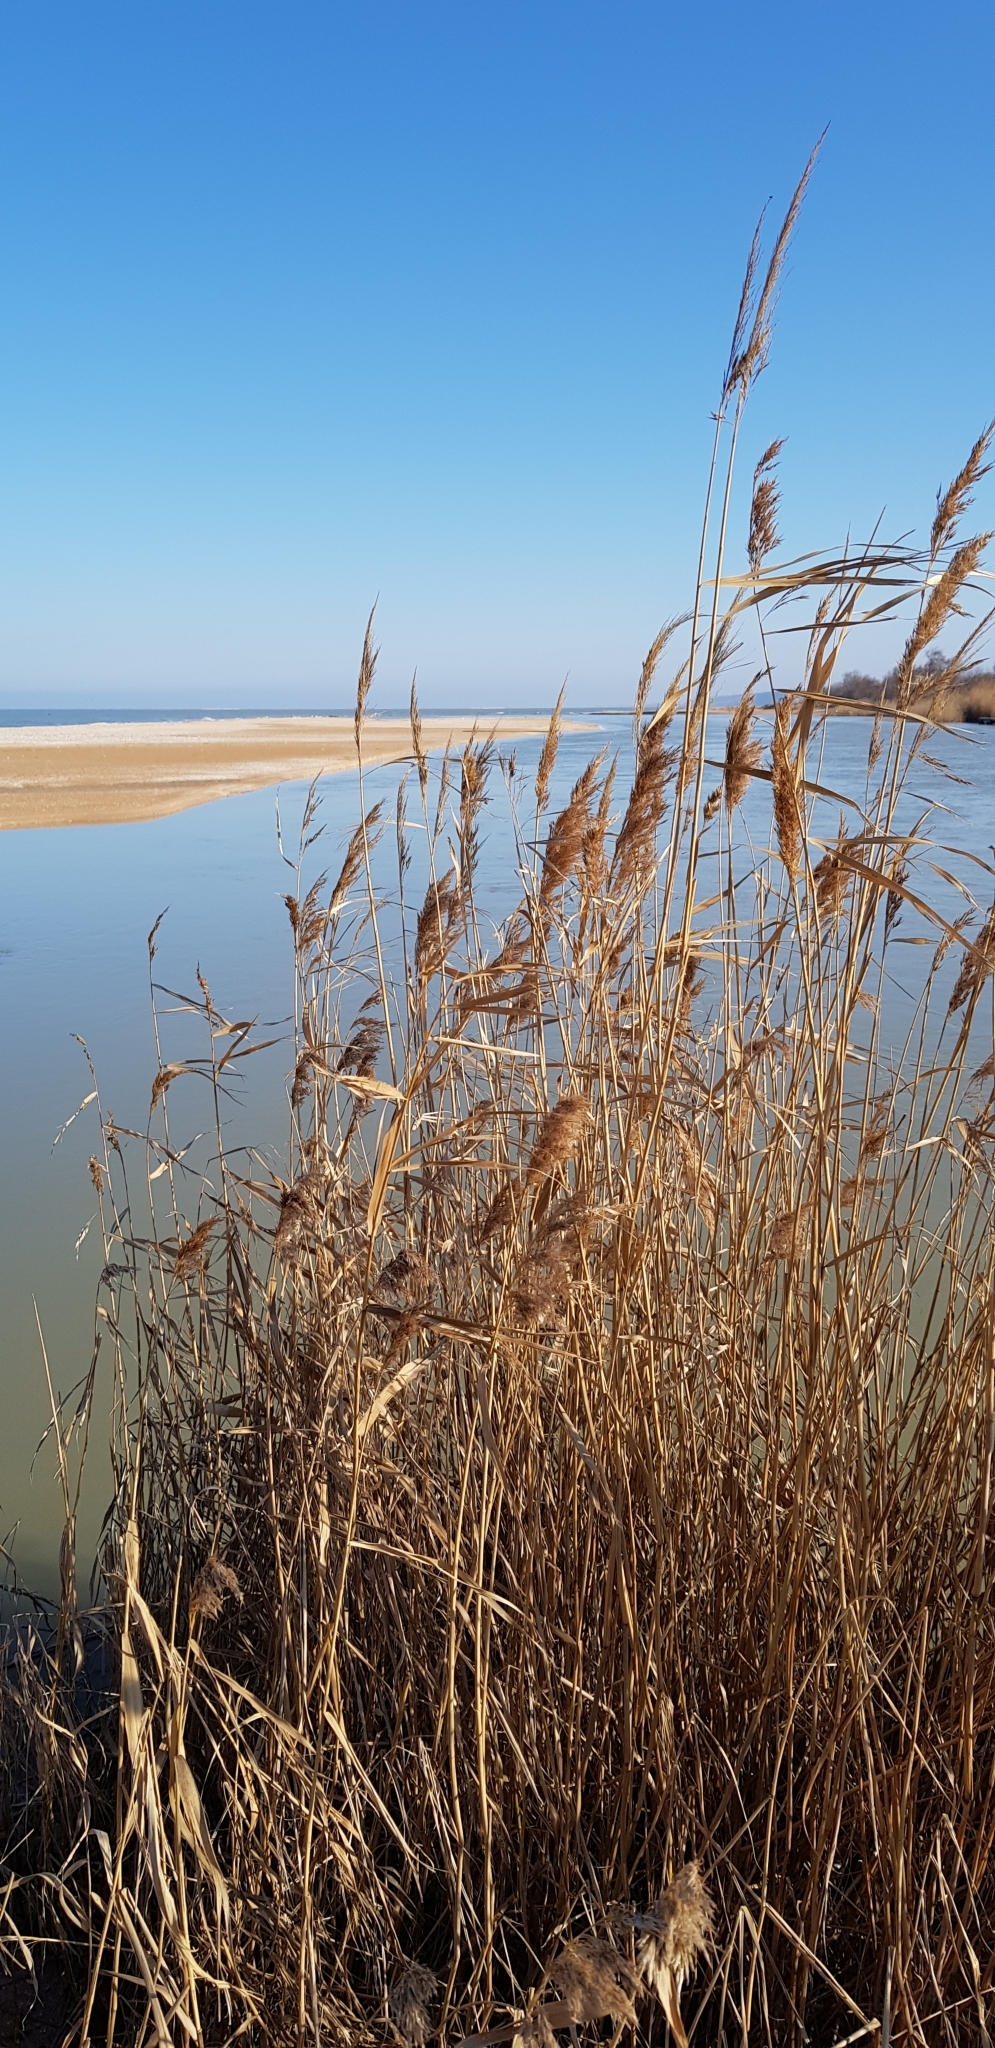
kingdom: Plantae
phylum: Tracheophyta
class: Liliopsida
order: Poales
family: Poaceae
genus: Phragmites
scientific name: Phragmites australis
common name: Common reed
